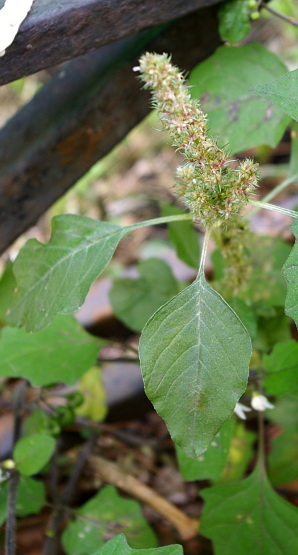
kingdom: Plantae
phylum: Tracheophyta
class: Magnoliopsida
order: Caryophyllales
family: Amaranthaceae
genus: Amaranthus
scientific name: Amaranthus retroflexus
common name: Redroot amaranth
